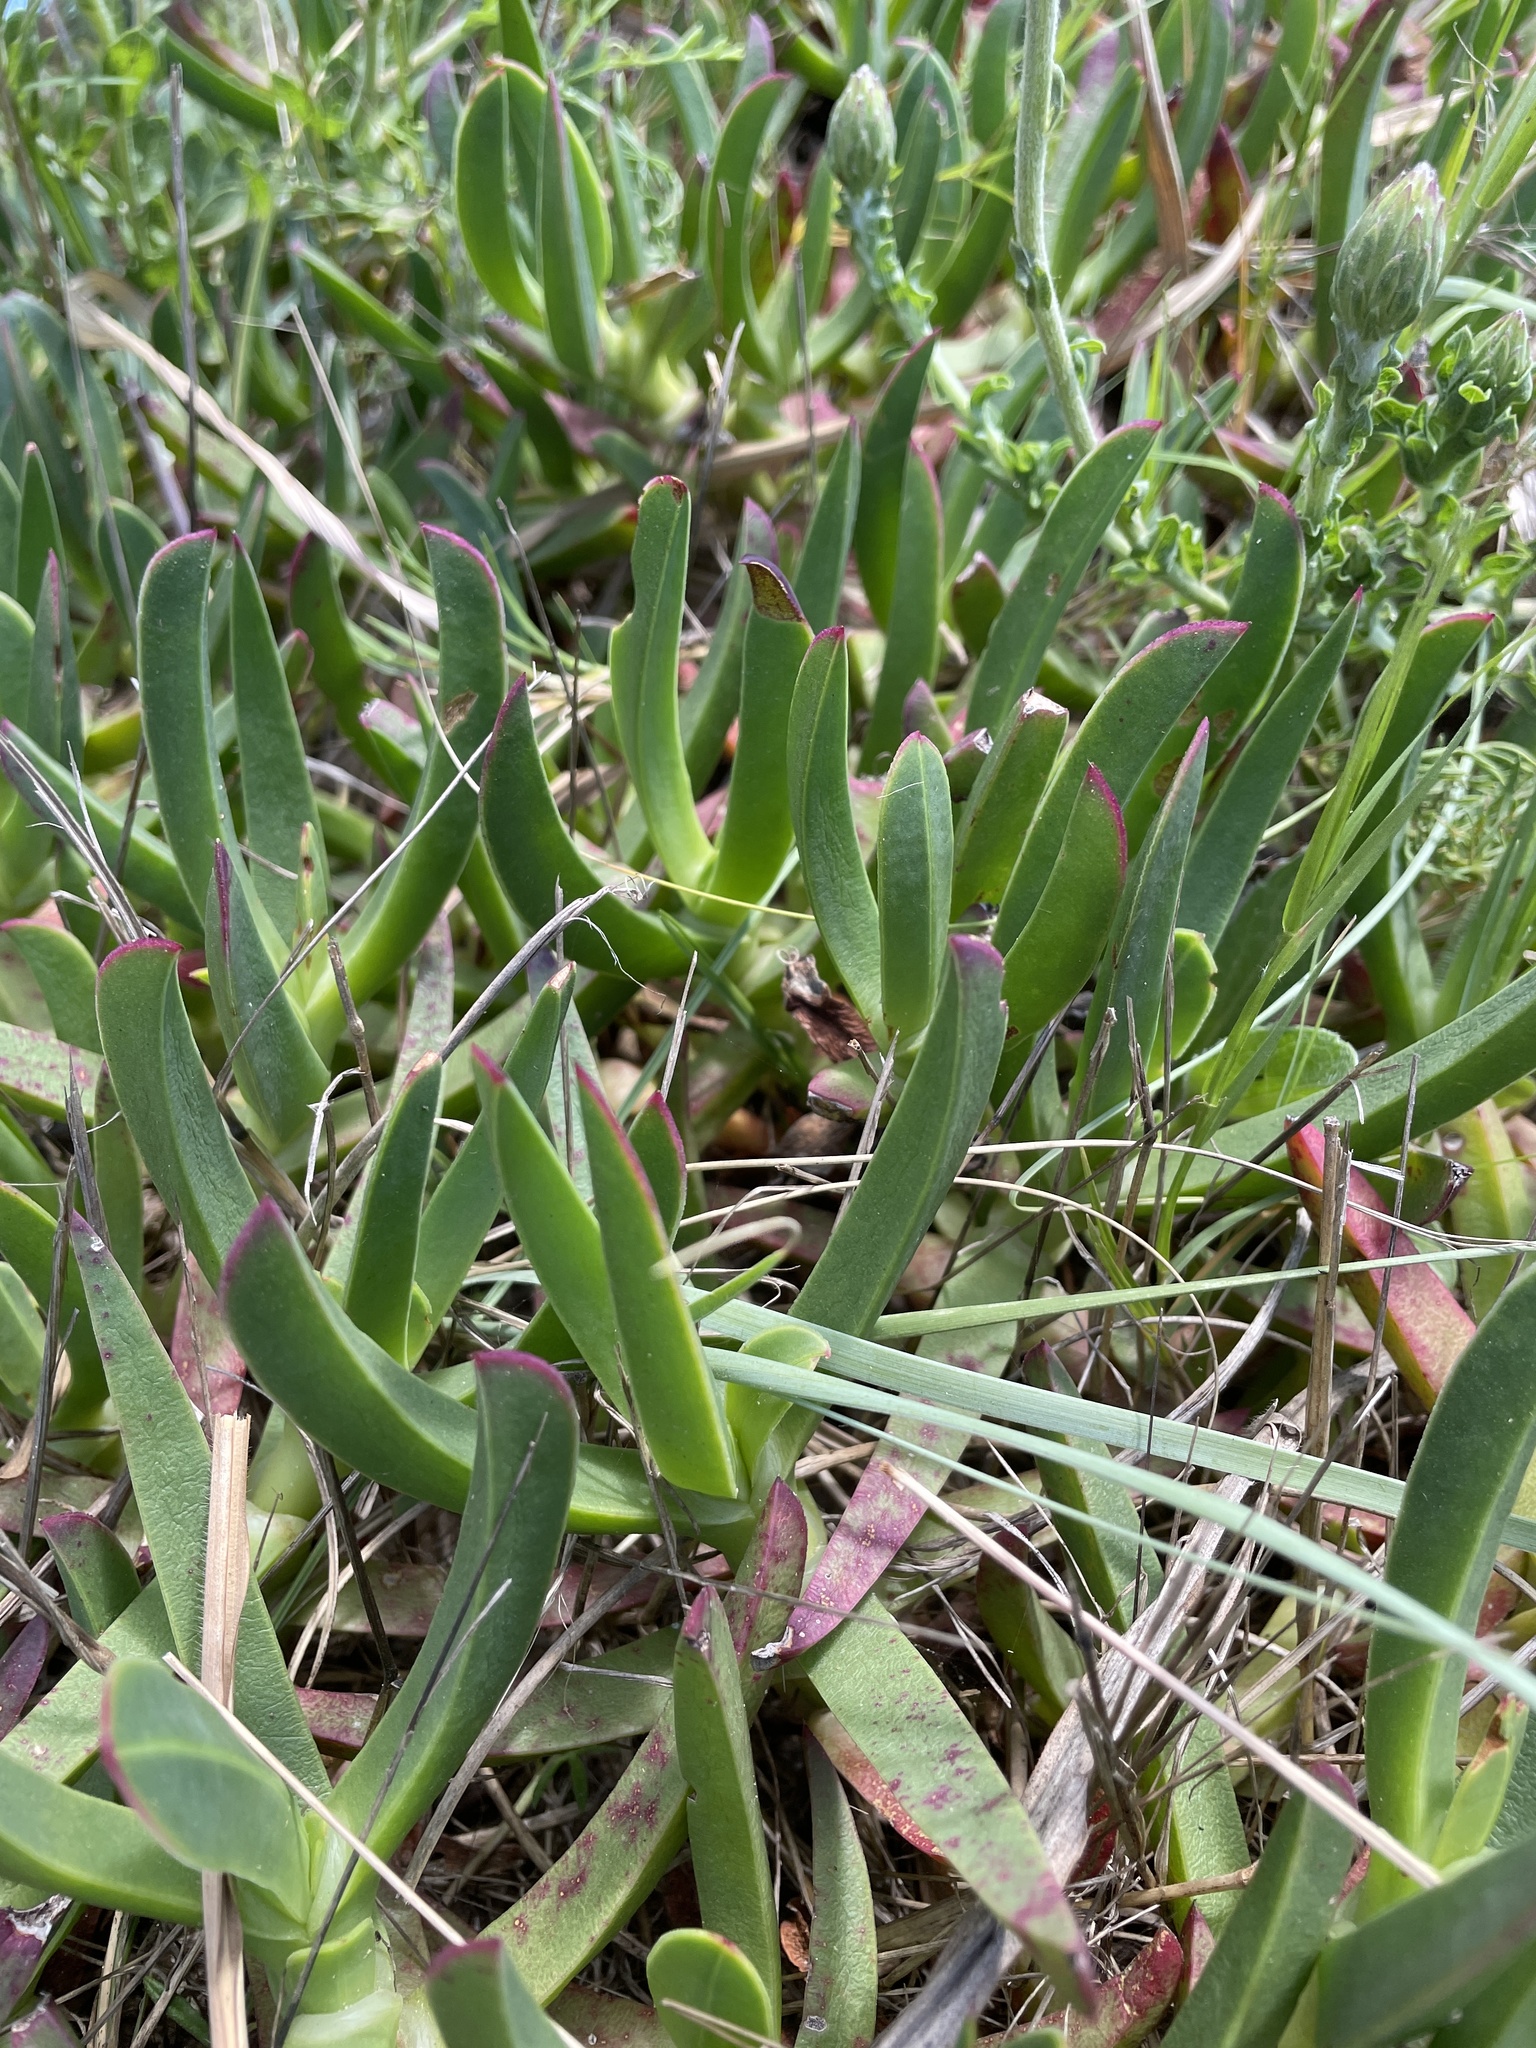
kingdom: Plantae
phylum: Tracheophyta
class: Magnoliopsida
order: Caryophyllales
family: Aizoaceae
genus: Carpobrotus
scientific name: Carpobrotus edulis
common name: Hottentot-fig
